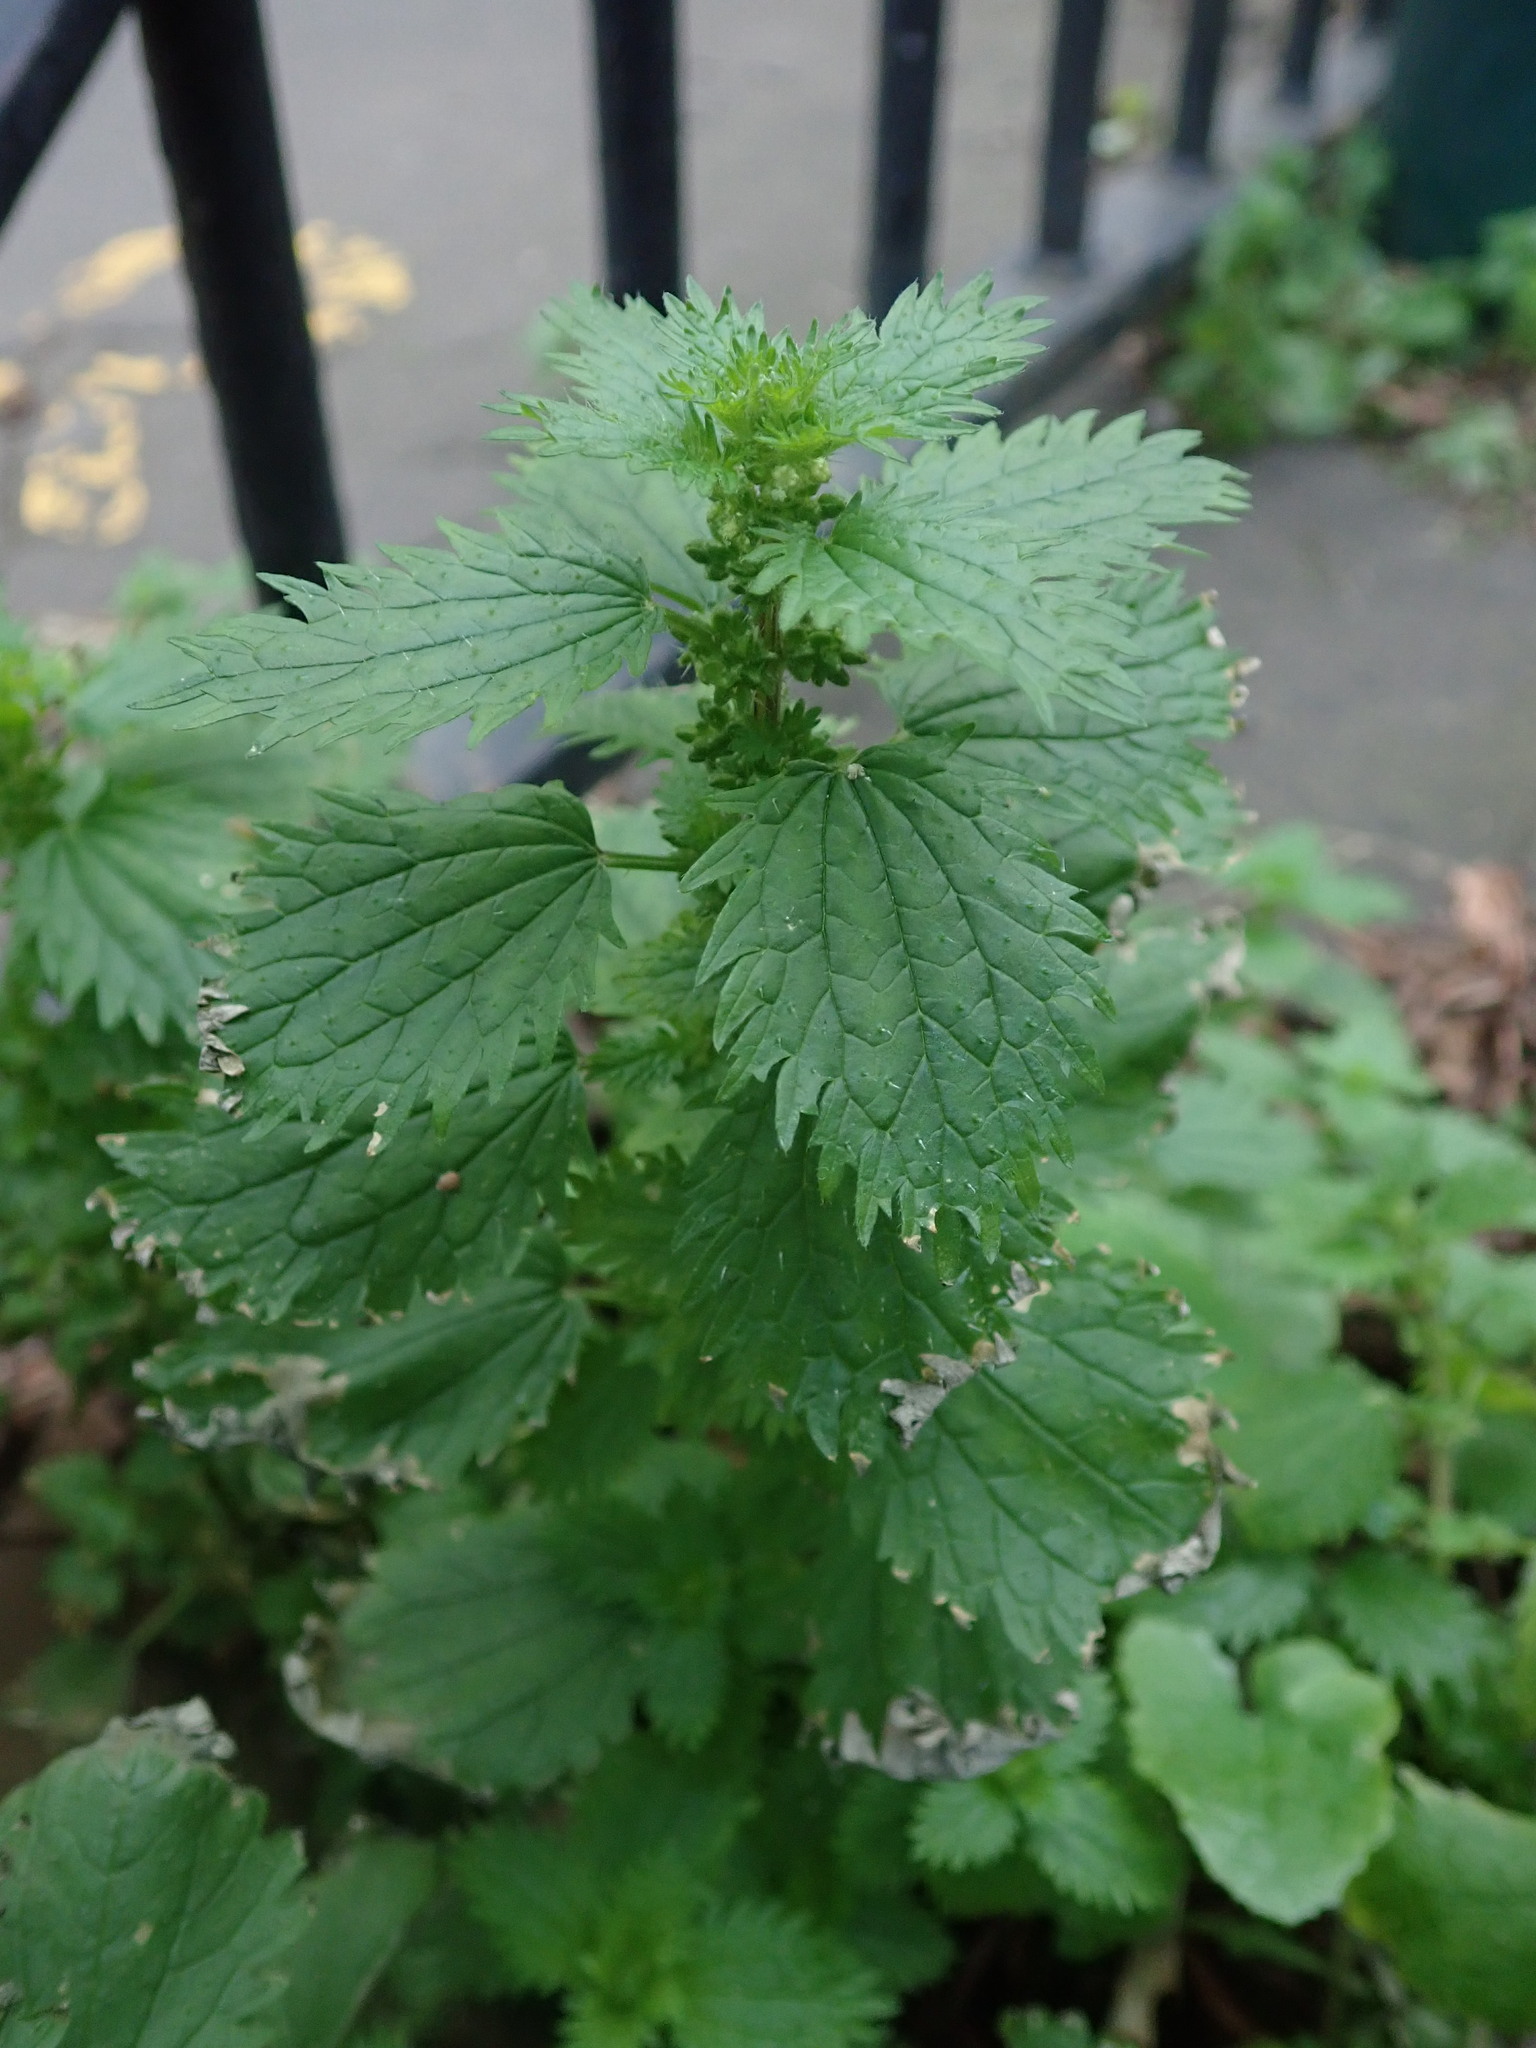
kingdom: Plantae
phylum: Tracheophyta
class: Magnoliopsida
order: Rosales
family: Urticaceae
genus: Urtica
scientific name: Urtica urens
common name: Dwarf nettle
